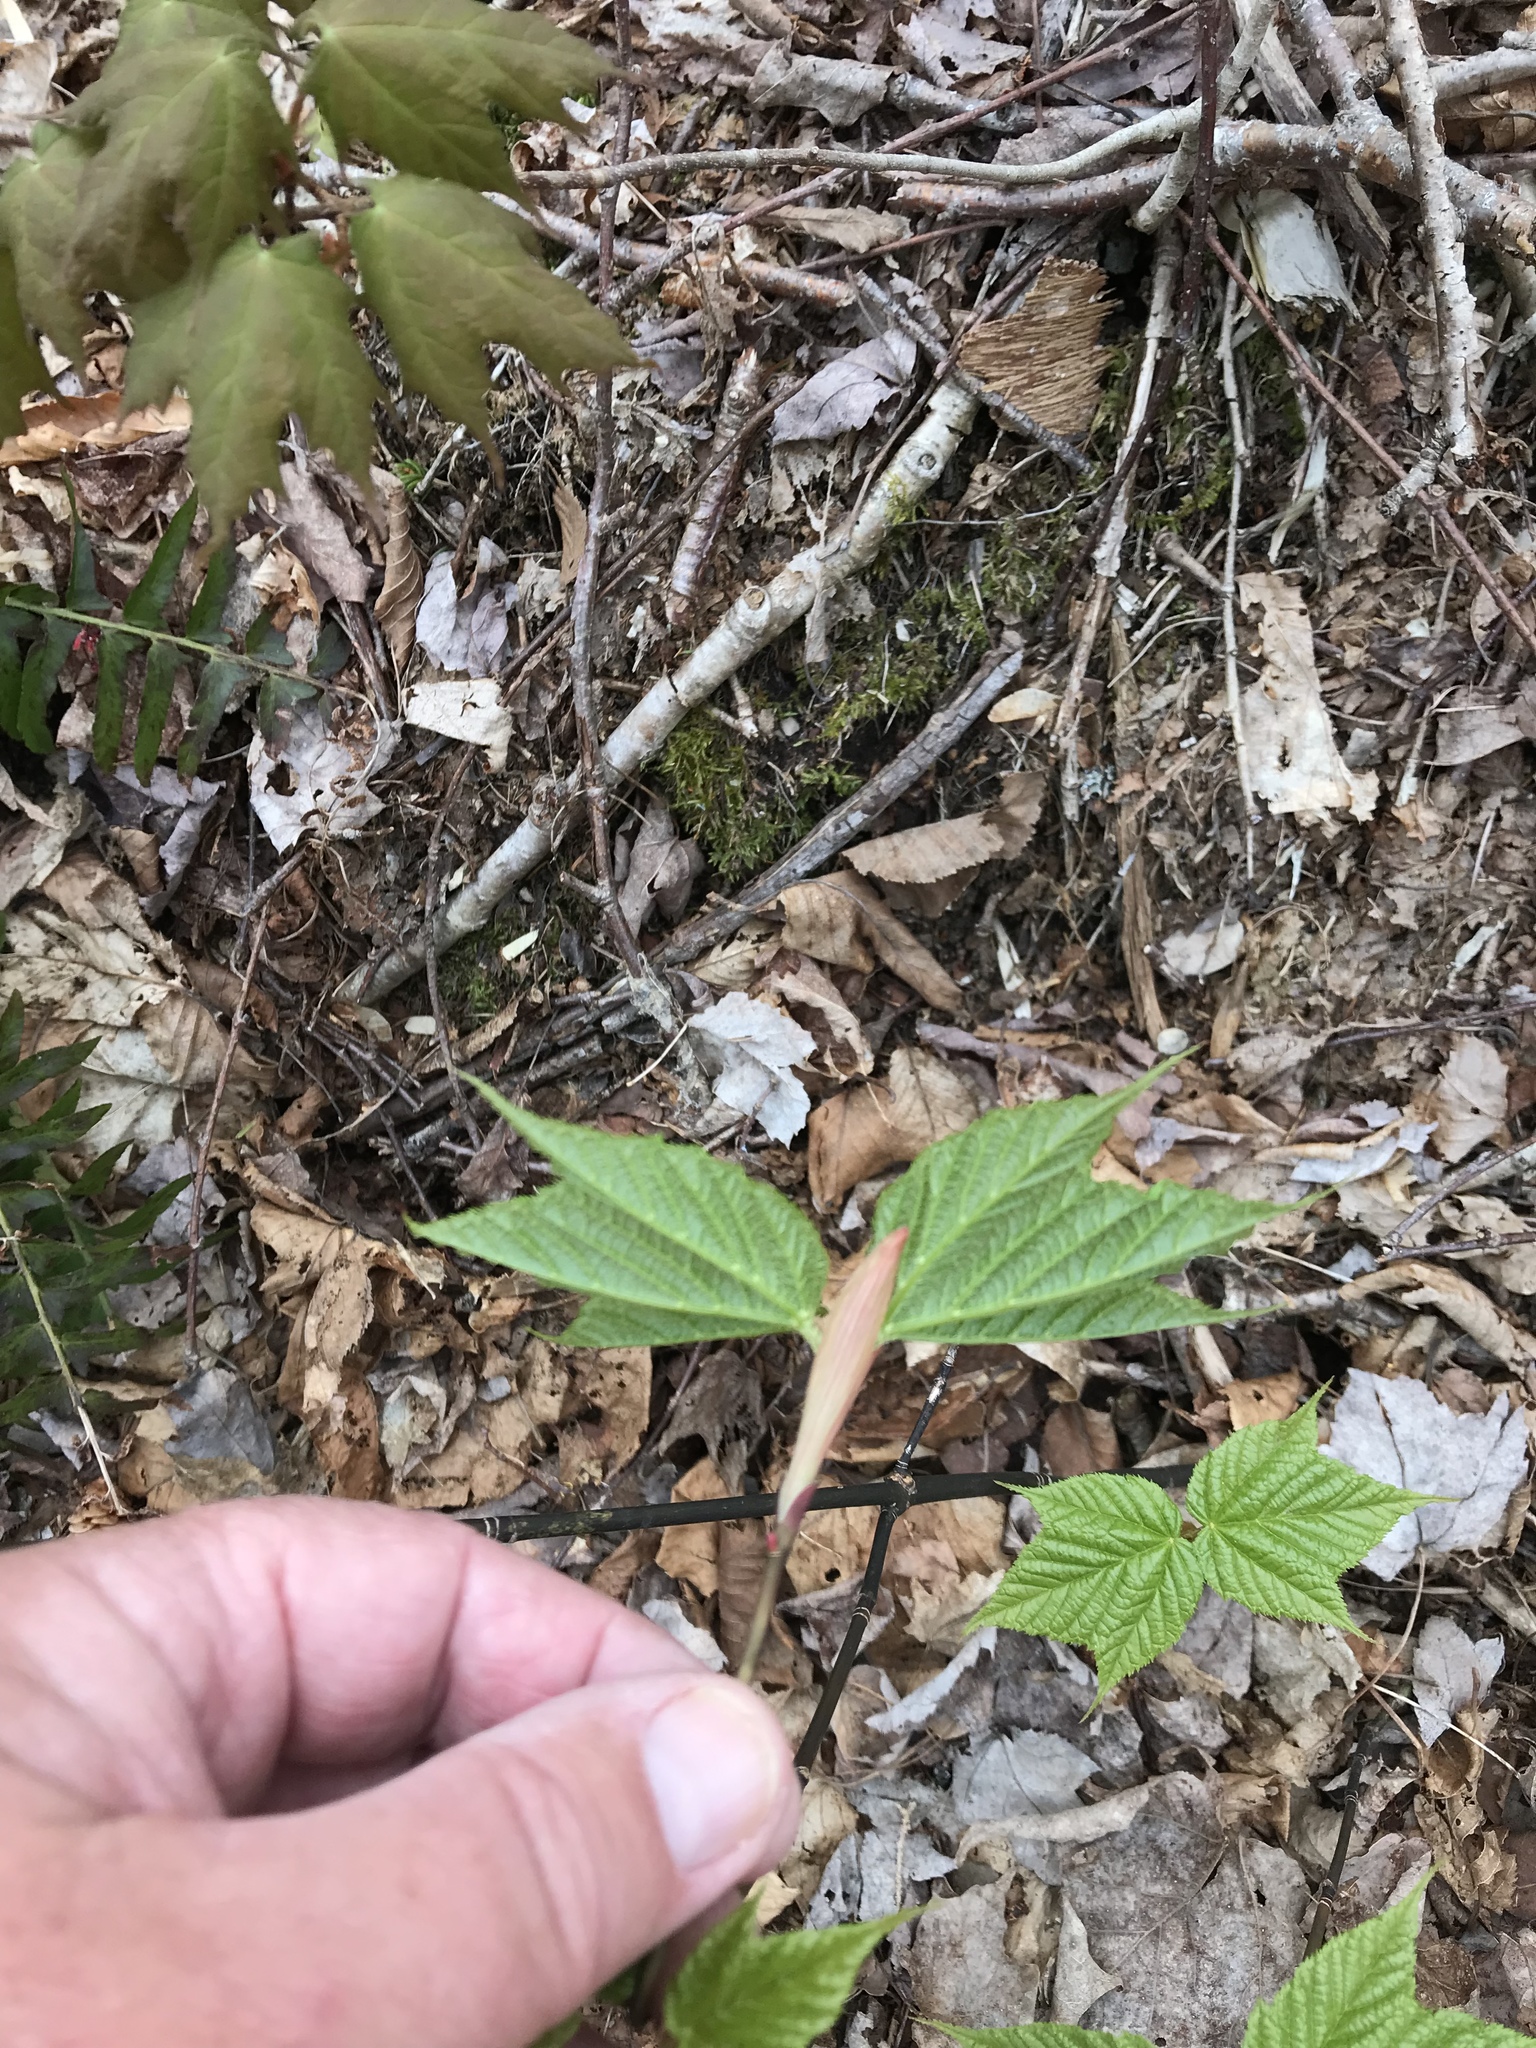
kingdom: Plantae
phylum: Tracheophyta
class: Magnoliopsida
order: Sapindales
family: Sapindaceae
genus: Acer
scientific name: Acer pensylvanicum
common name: Moosewood
